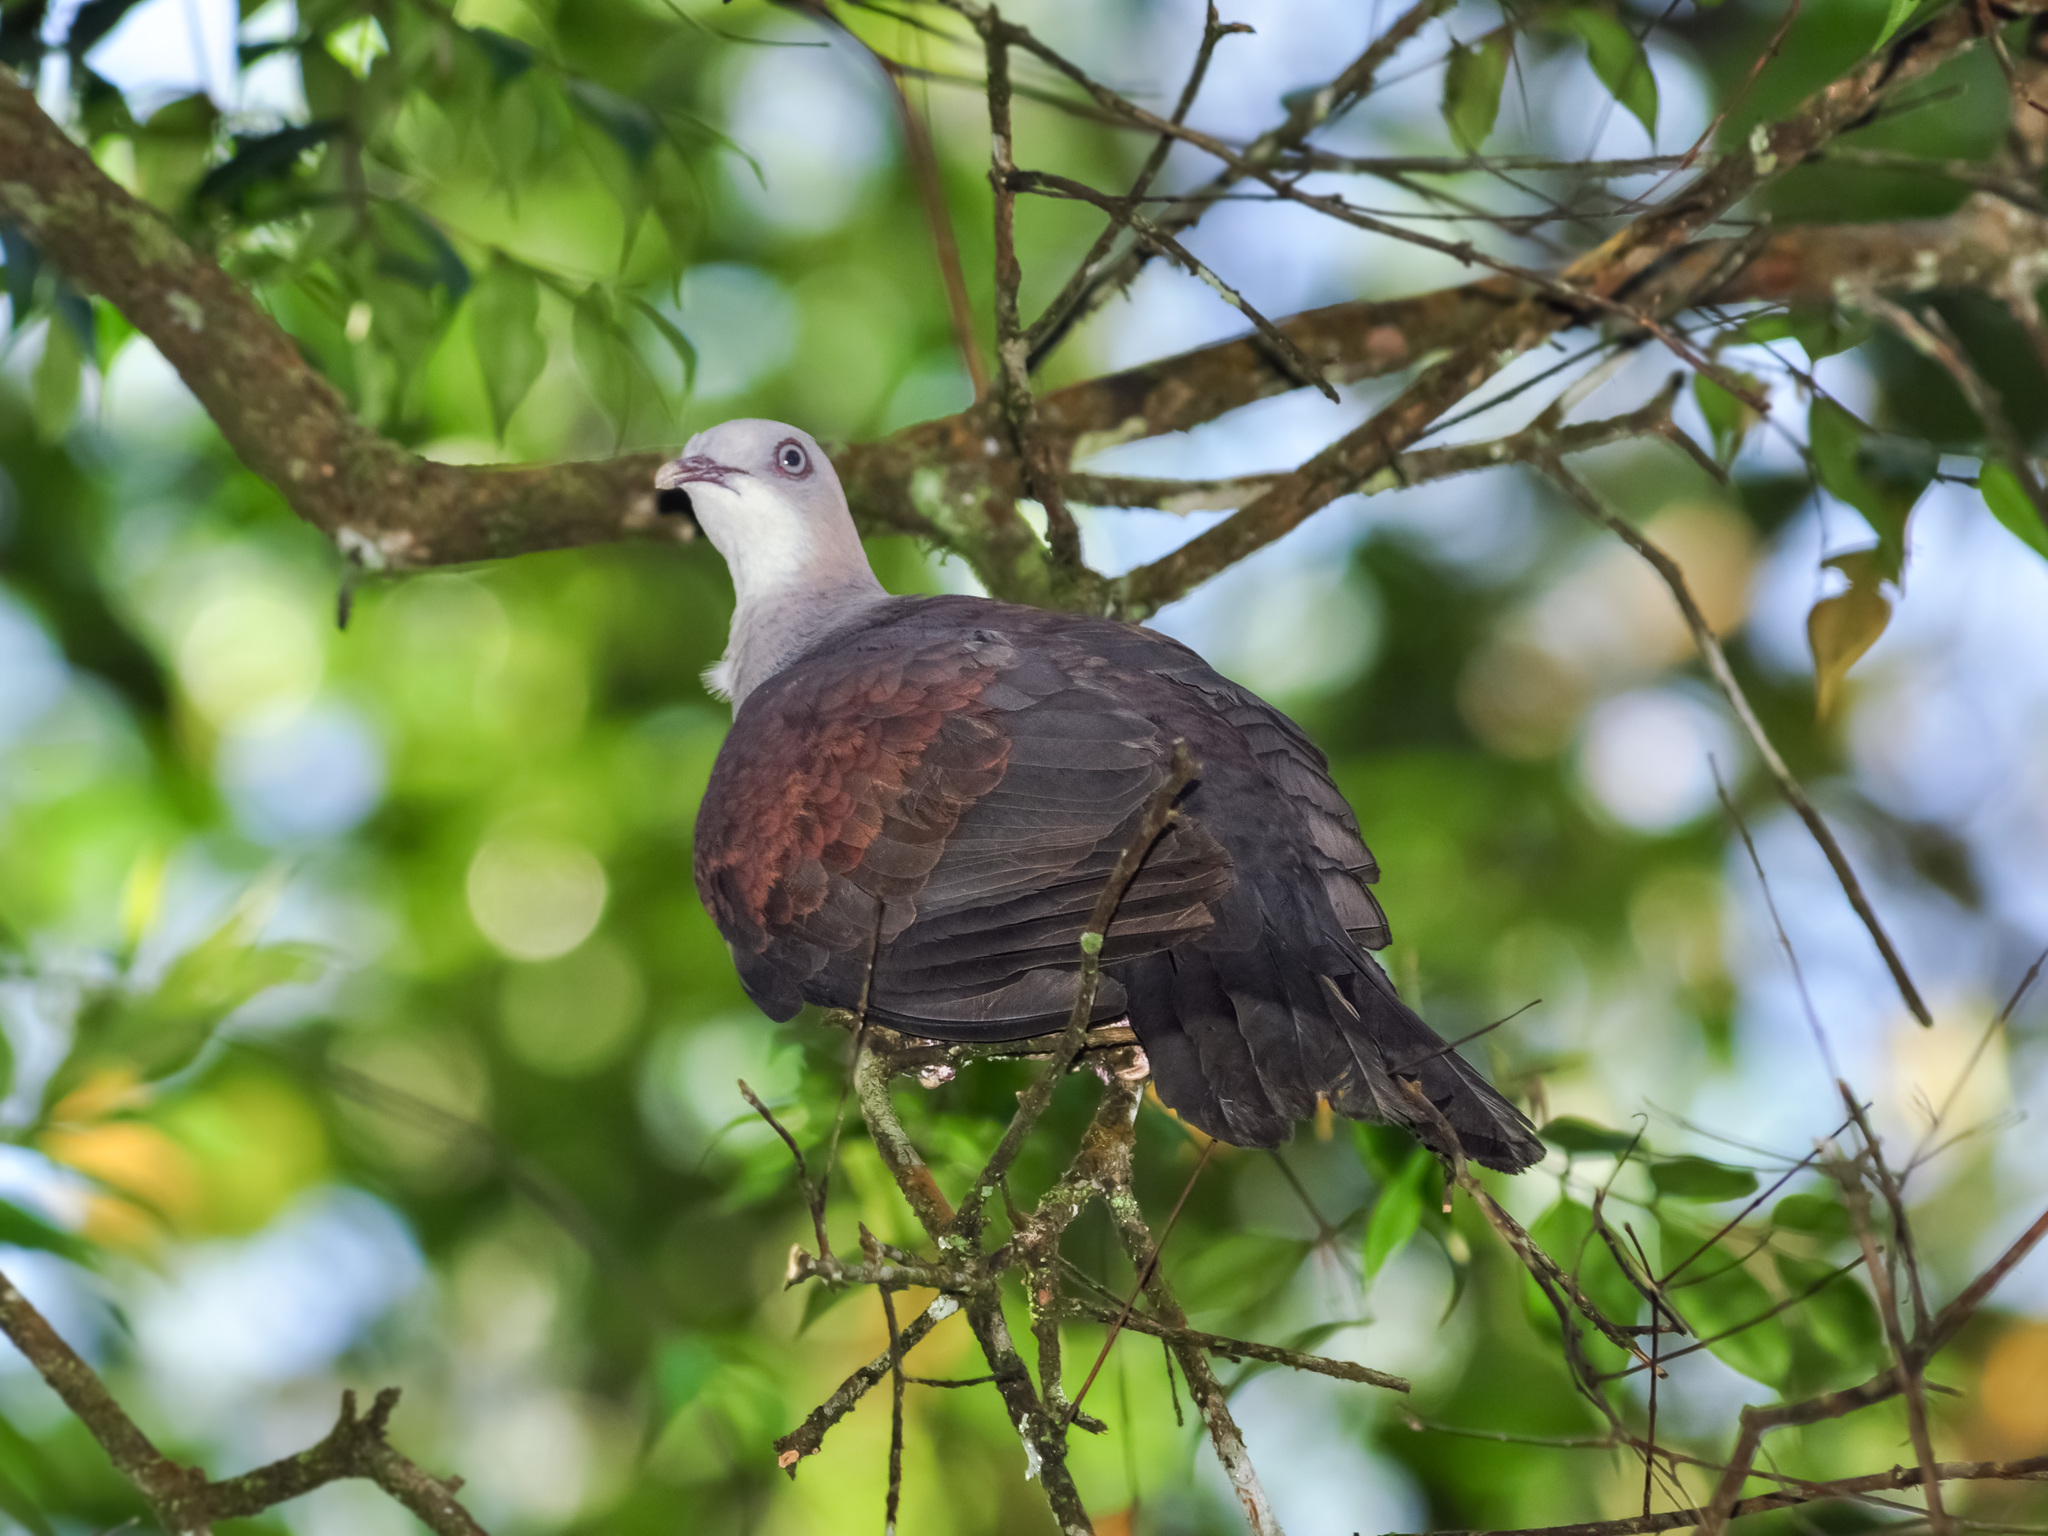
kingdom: Animalia
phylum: Chordata
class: Aves
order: Columbiformes
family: Columbidae
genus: Ducula
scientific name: Ducula badia
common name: Mountain imperial pigeon
